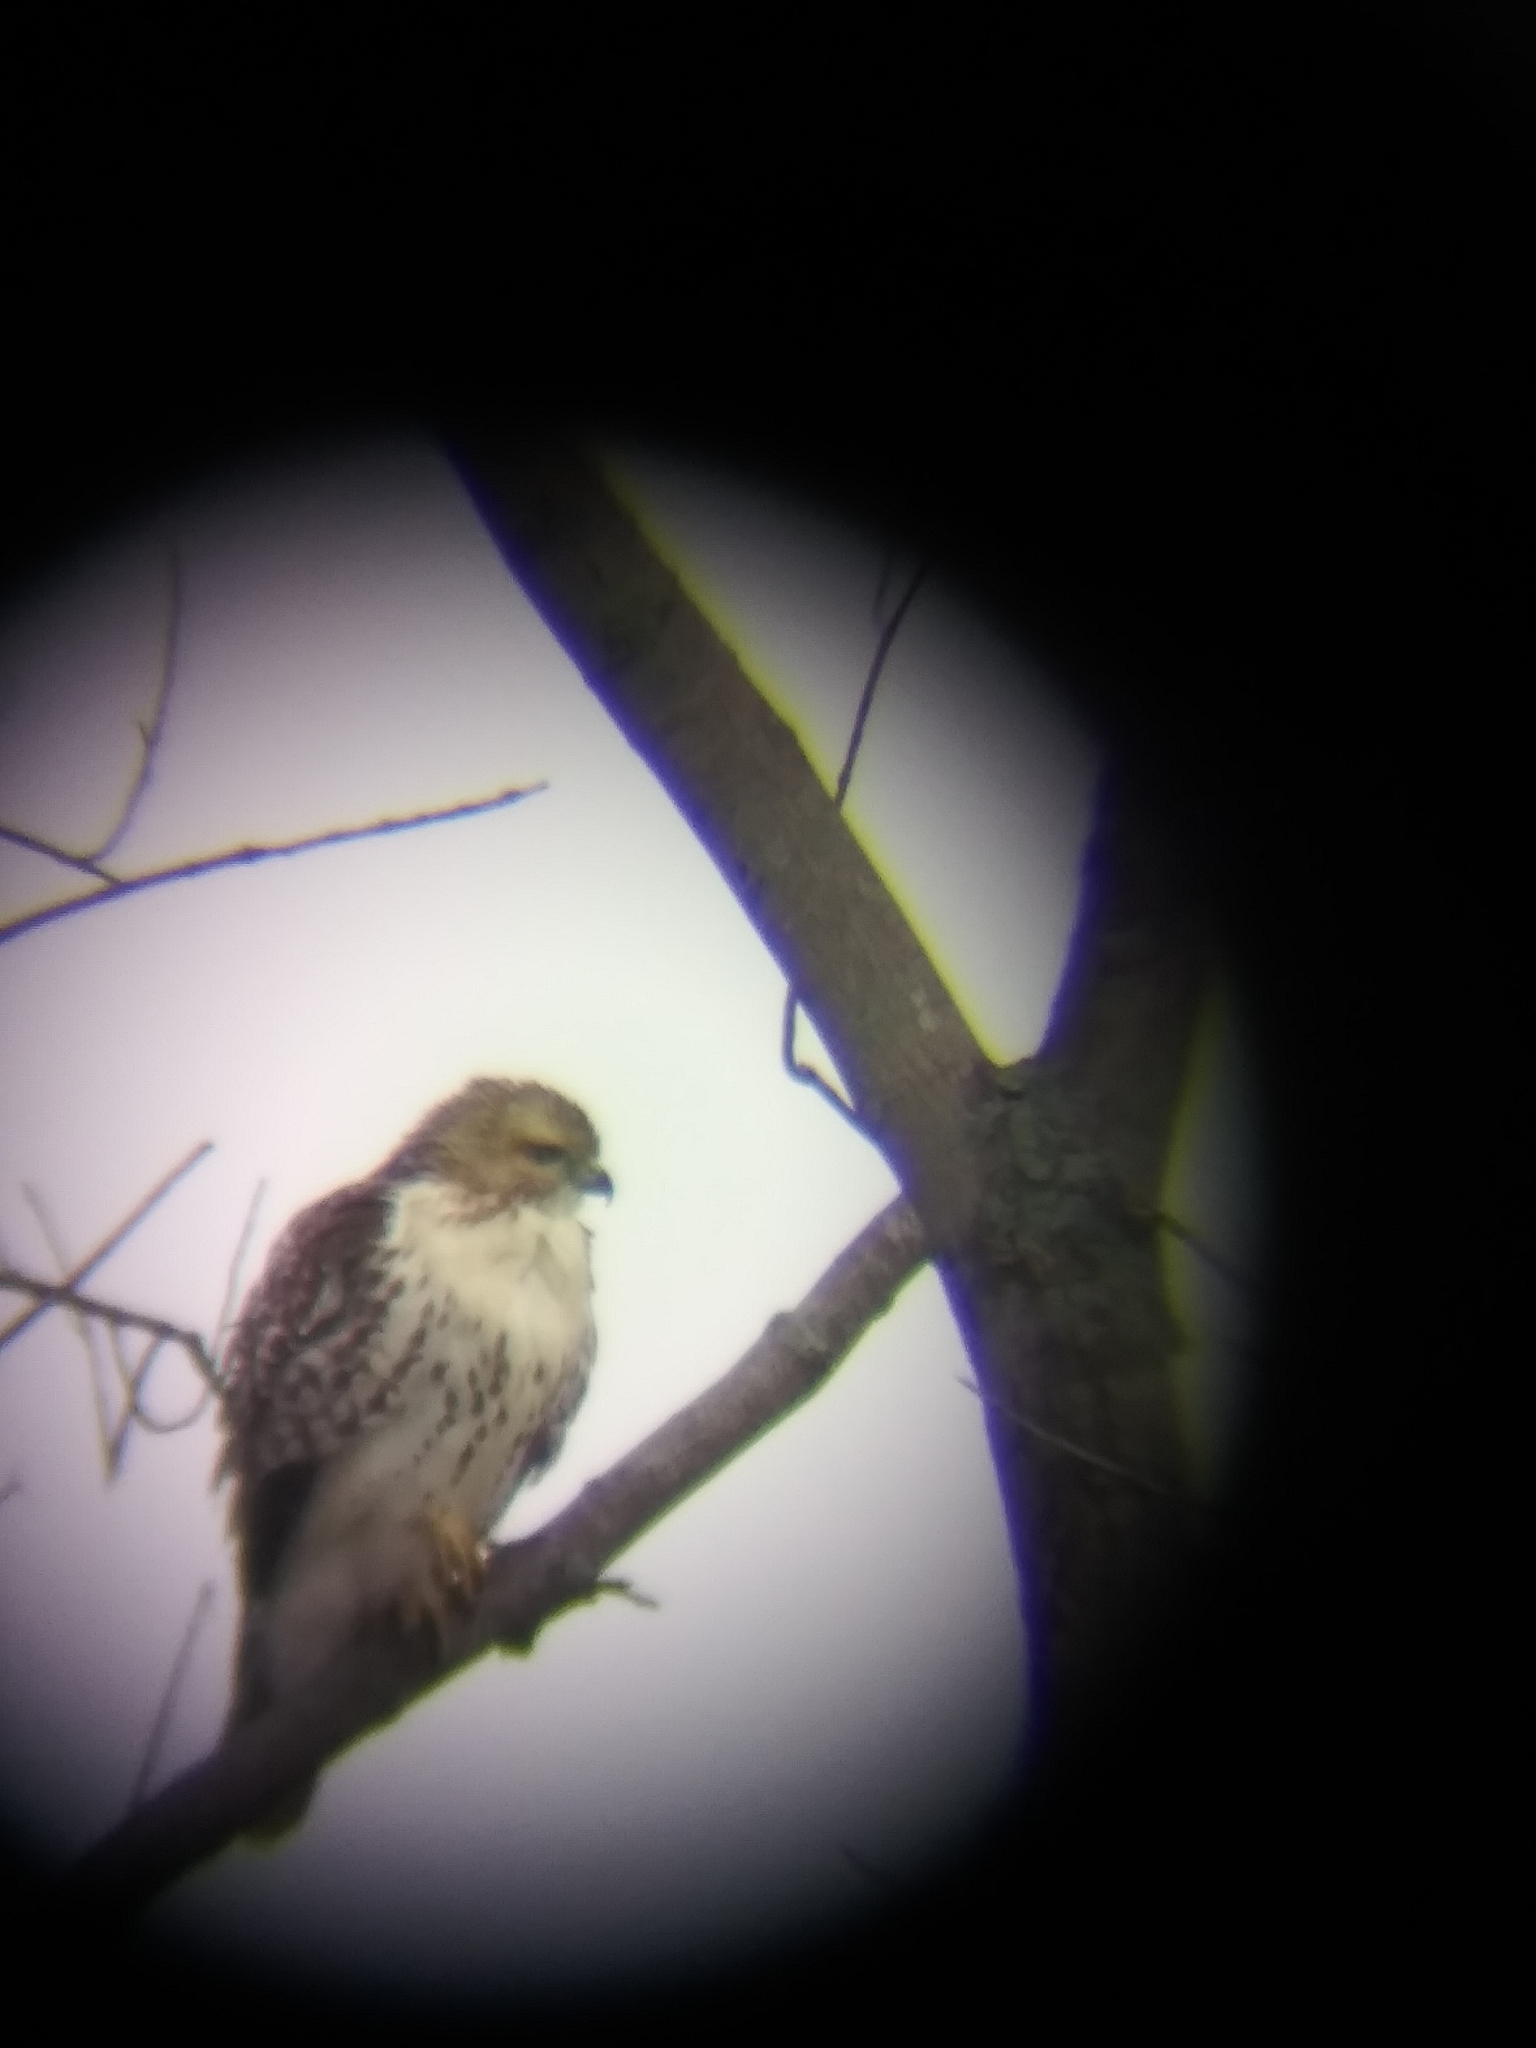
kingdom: Animalia
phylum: Chordata
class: Aves
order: Accipitriformes
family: Accipitridae
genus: Buteo
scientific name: Buteo jamaicensis
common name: Red-tailed hawk
